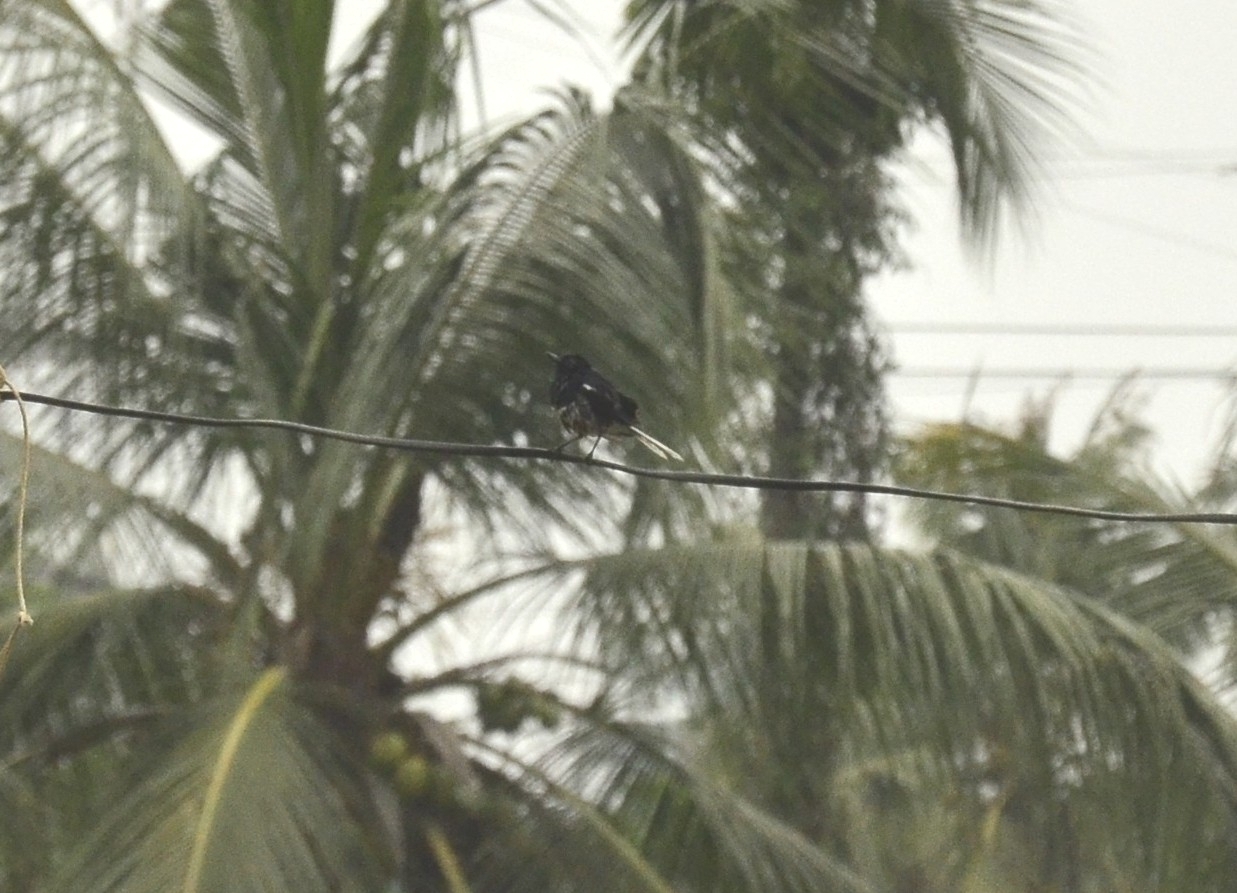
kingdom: Animalia
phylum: Chordata
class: Aves
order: Passeriformes
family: Muscicapidae
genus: Copsychus
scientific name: Copsychus saularis
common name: Oriental magpie-robin
